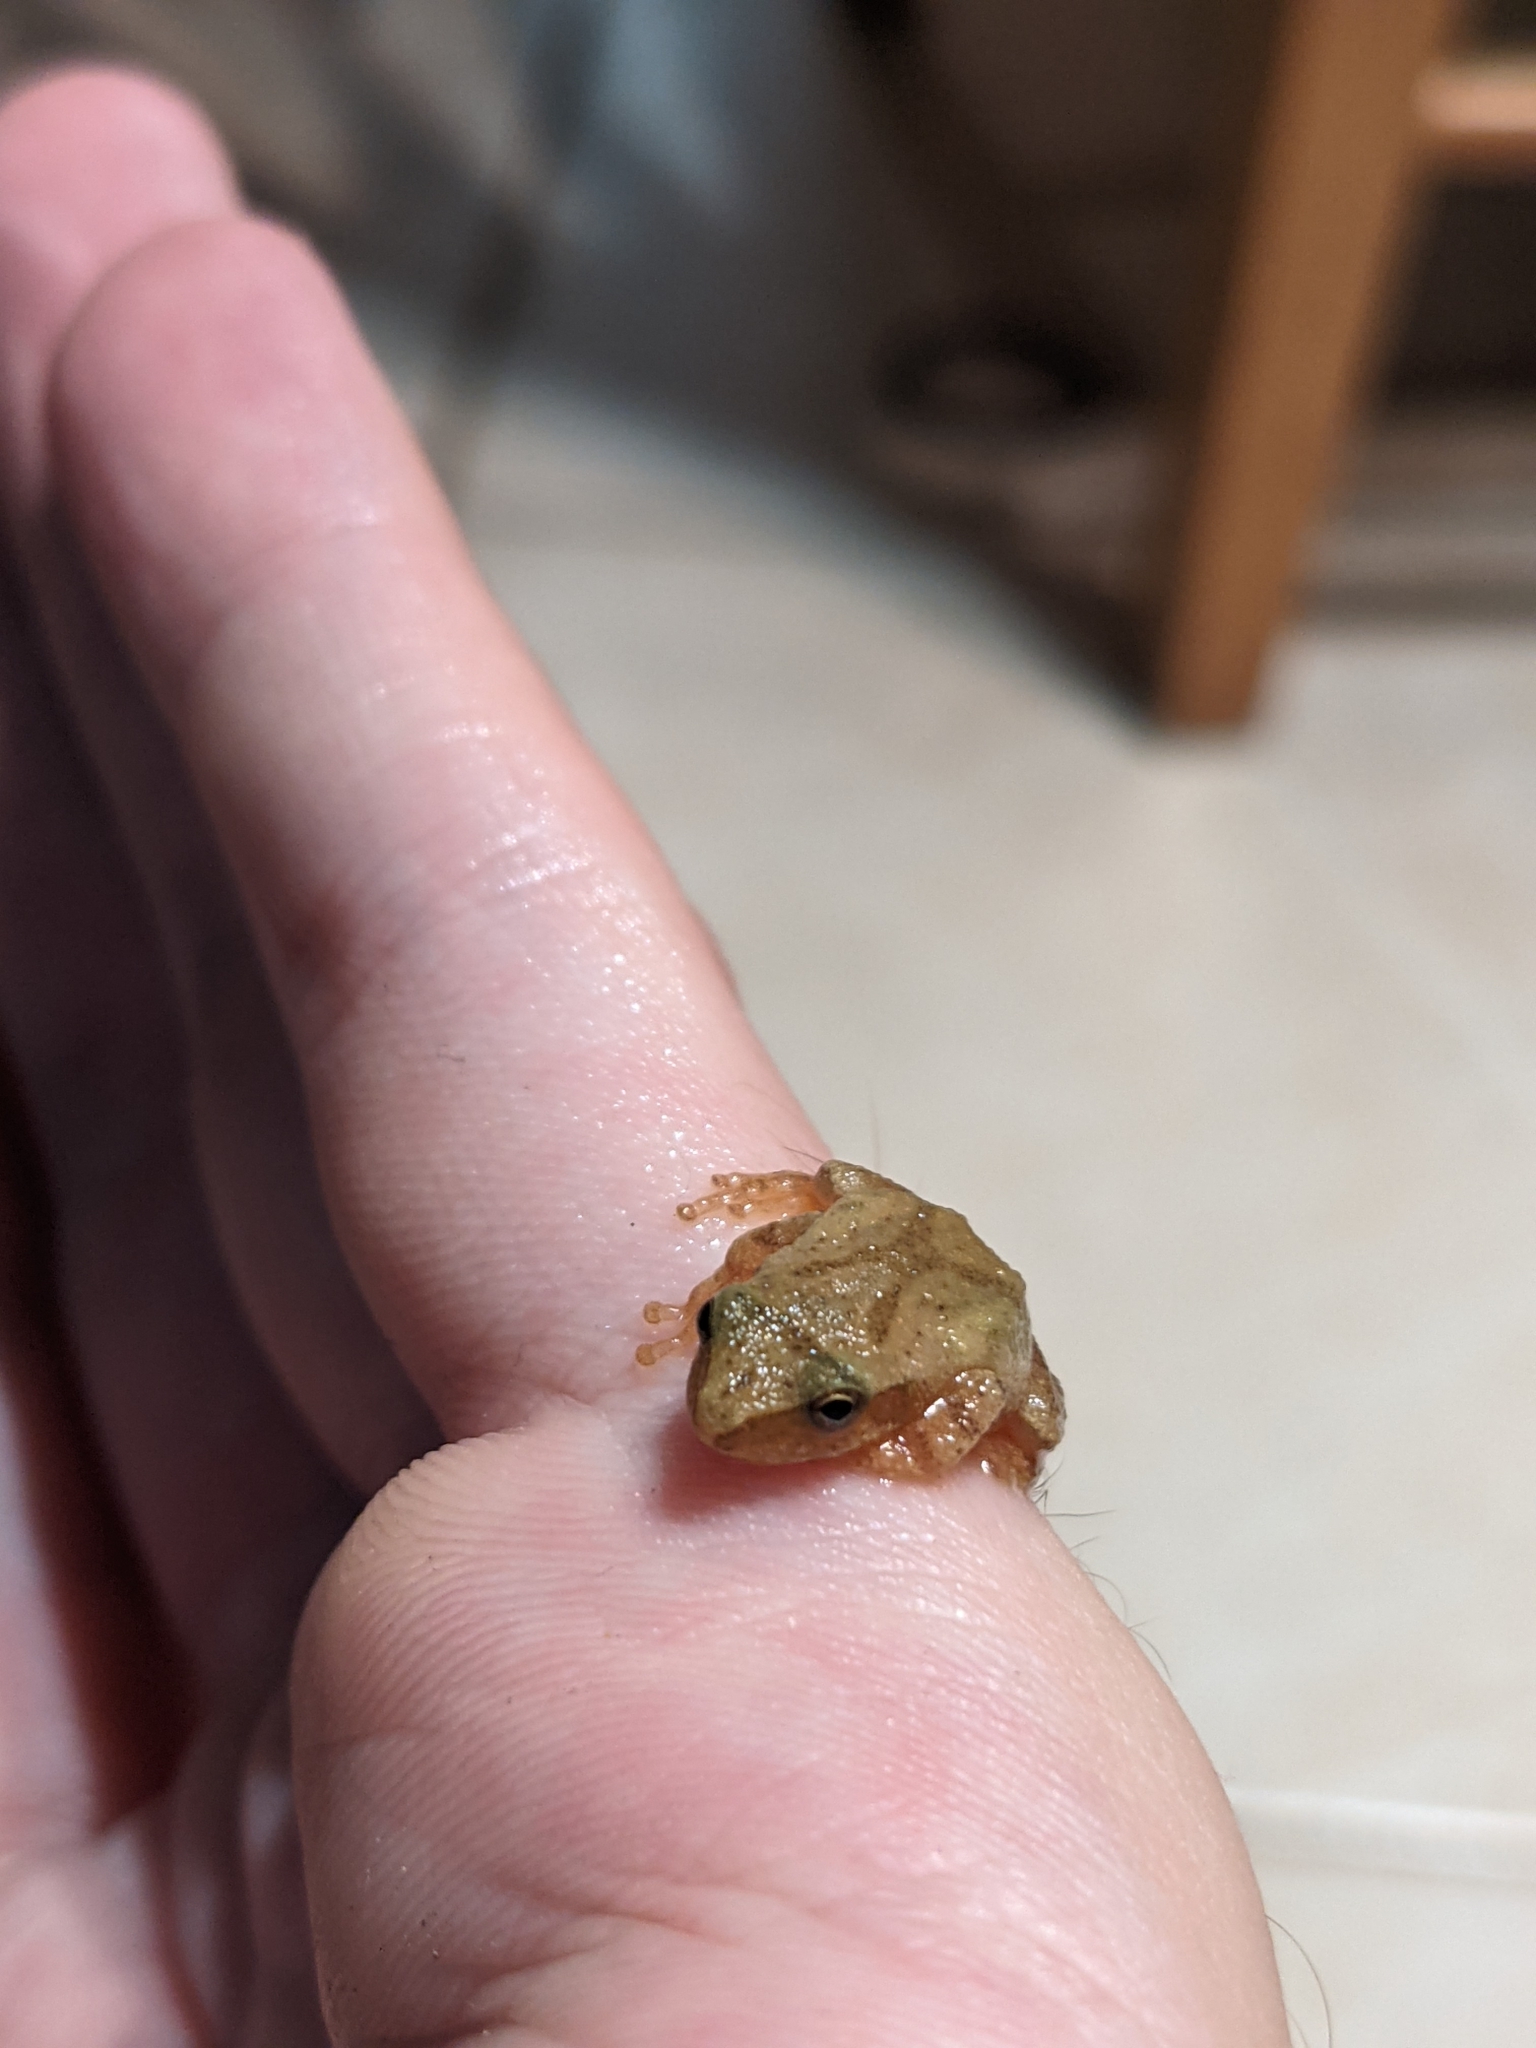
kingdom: Animalia
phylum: Chordata
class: Amphibia
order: Anura
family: Hylidae
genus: Pseudacris
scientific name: Pseudacris crucifer
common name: Spring peeper
